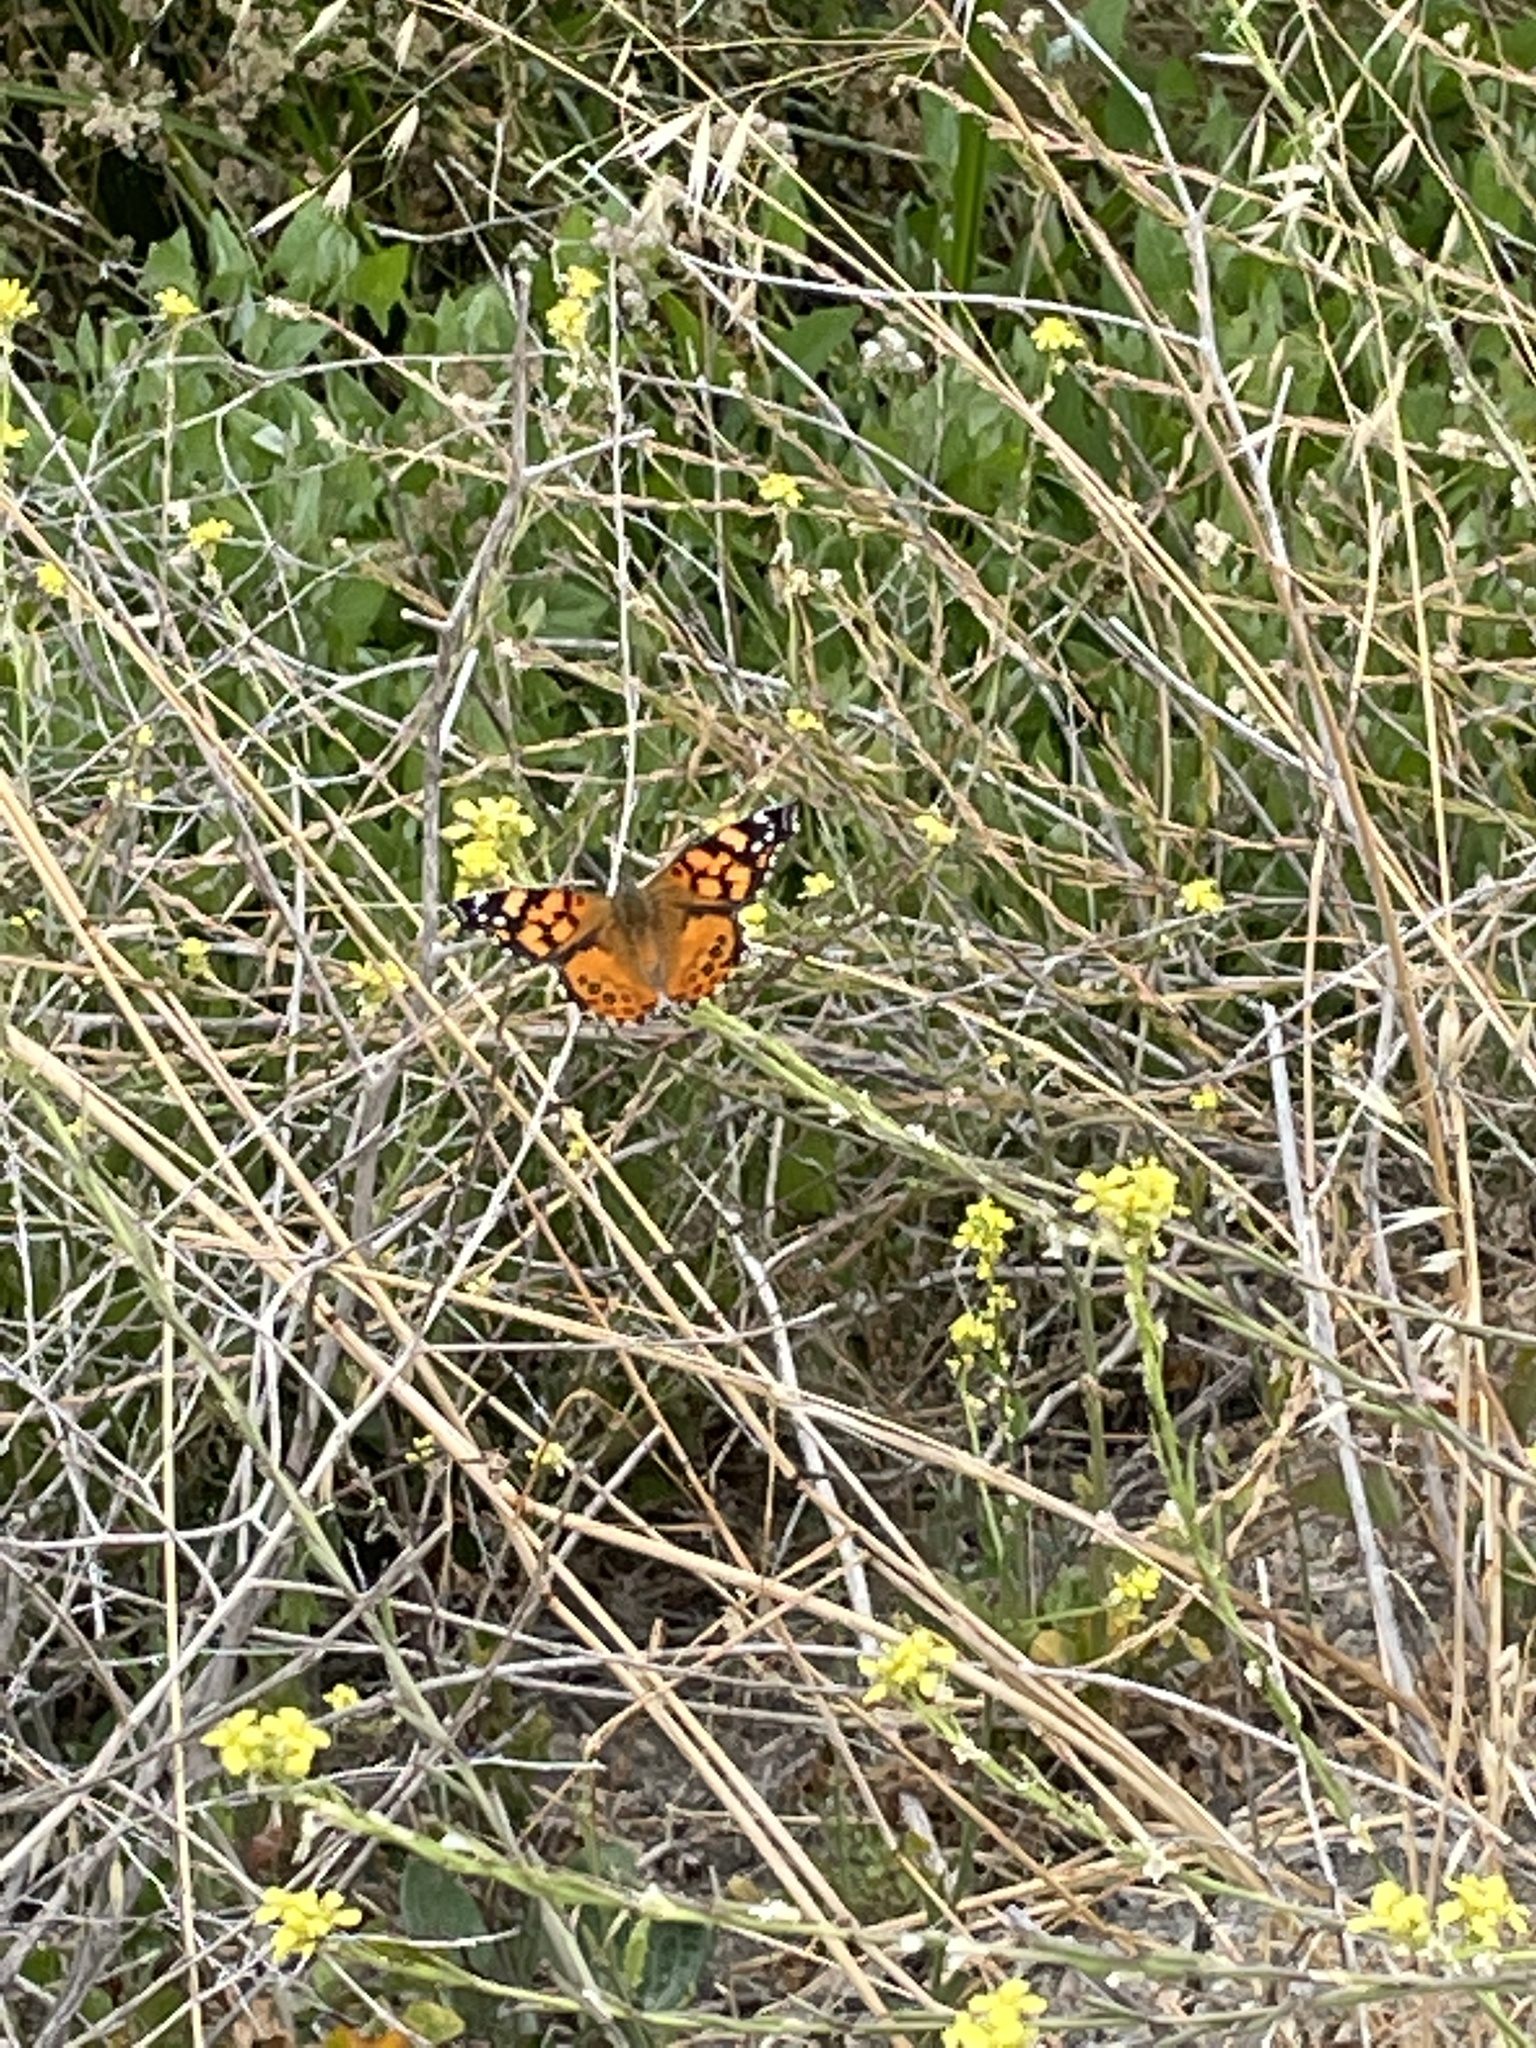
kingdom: Animalia
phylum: Arthropoda
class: Insecta
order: Lepidoptera
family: Nymphalidae
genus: Vanessa
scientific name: Vanessa annabella
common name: West coast lady
